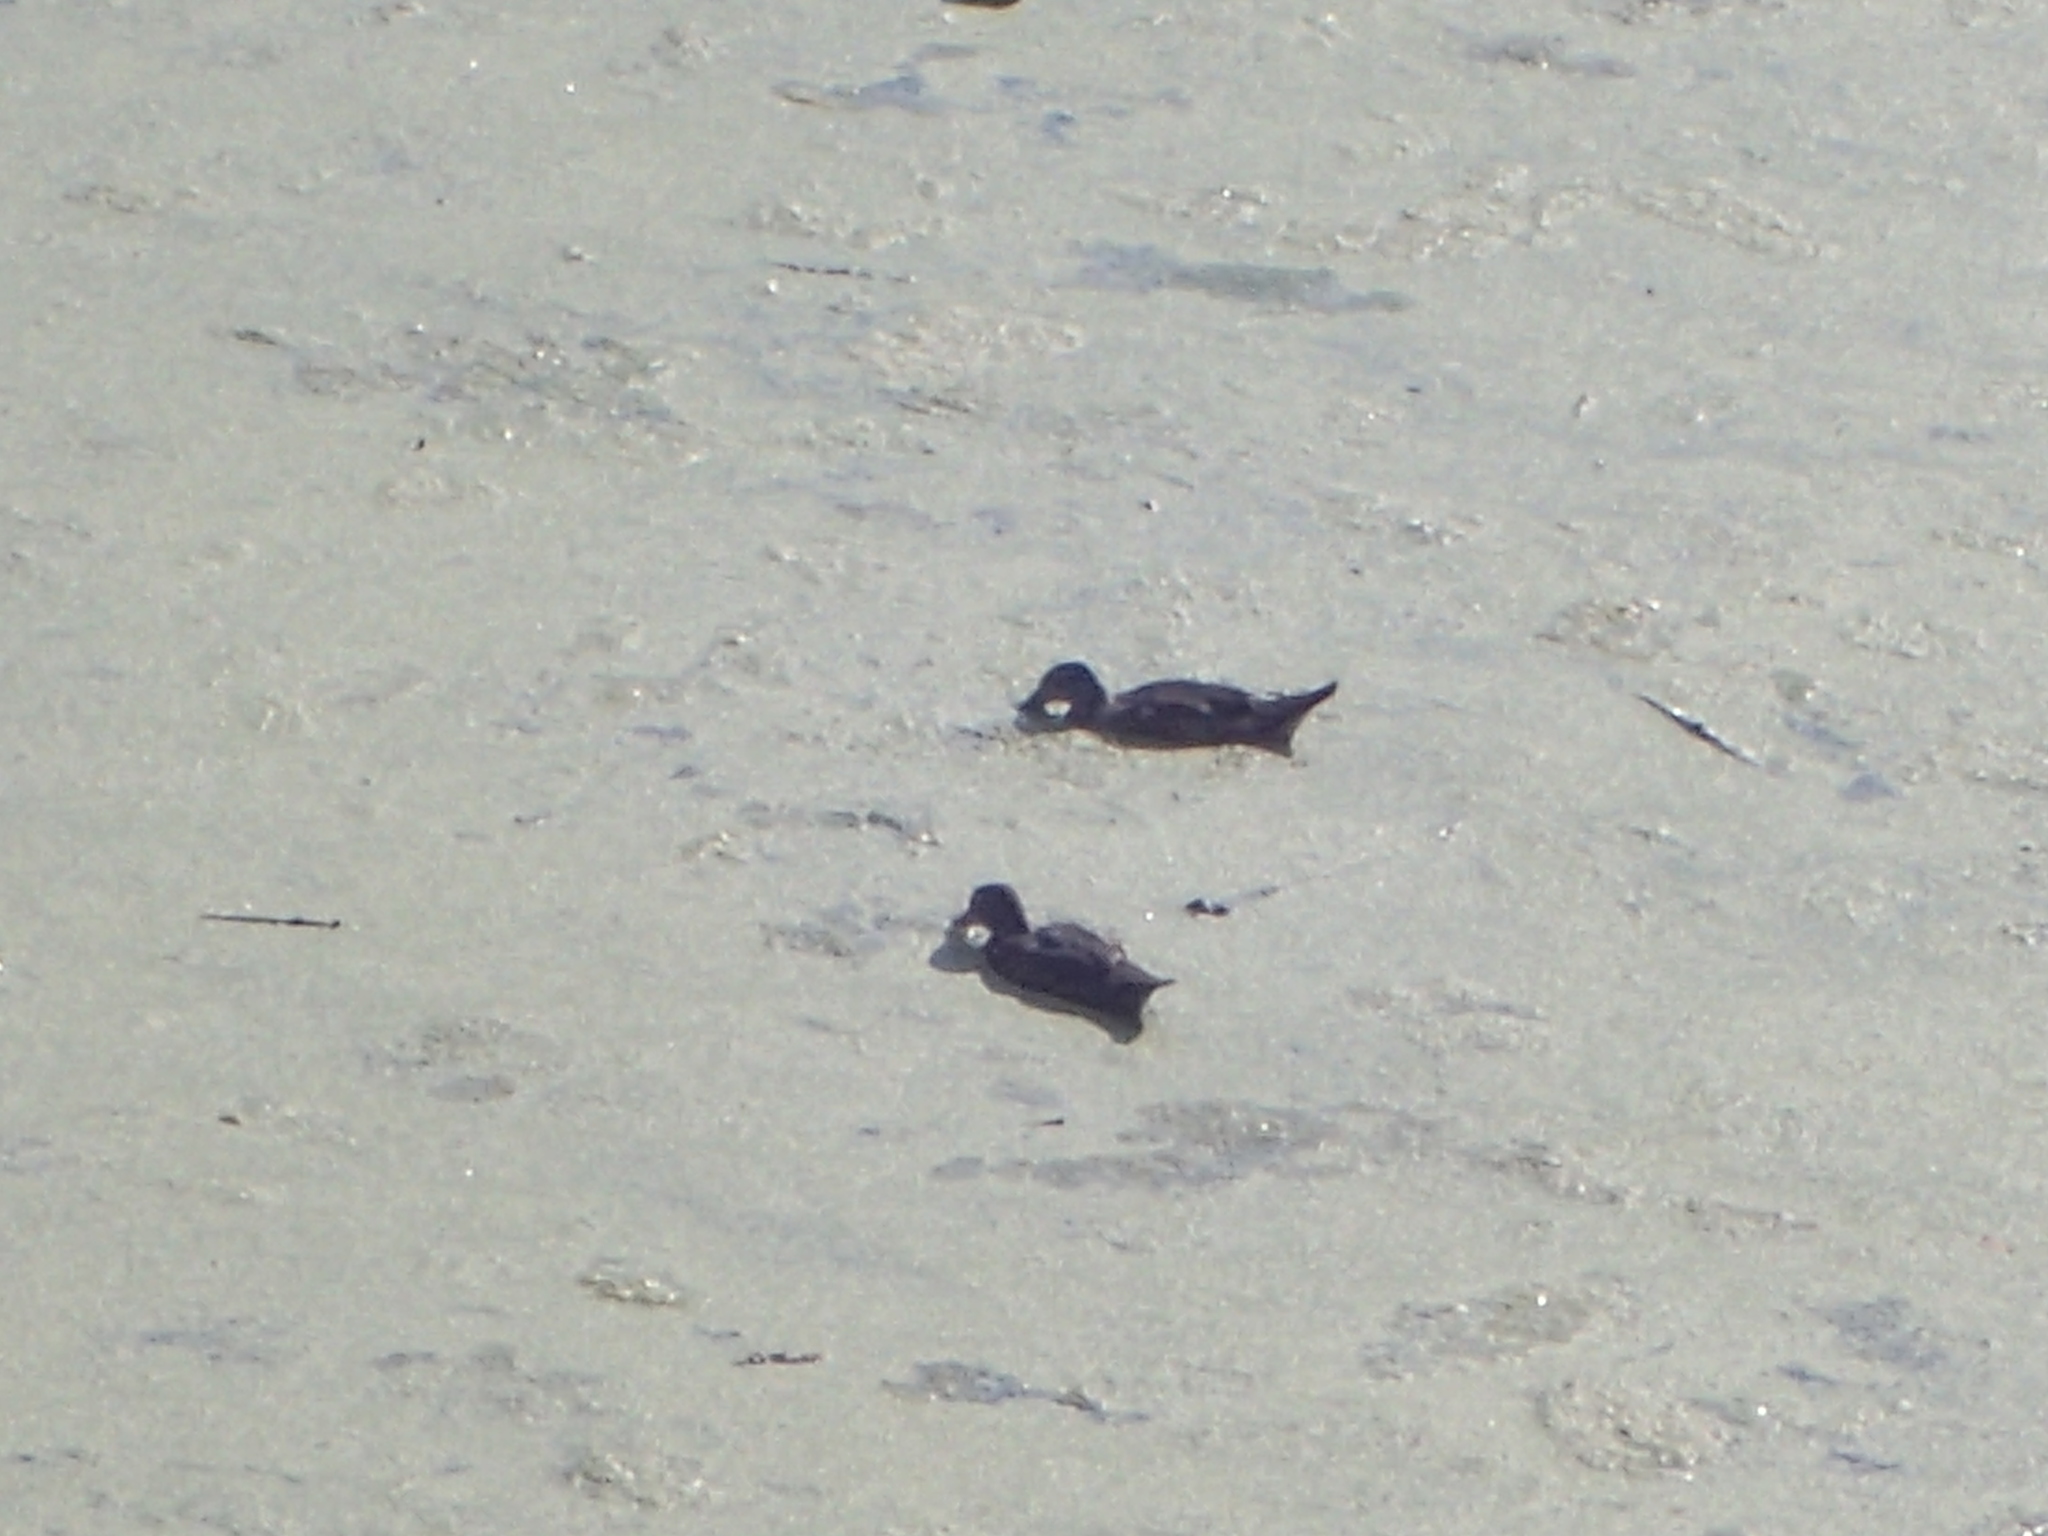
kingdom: Animalia
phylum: Chordata
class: Aves
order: Anseriformes
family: Anatidae
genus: Anas
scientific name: Anas platyrhynchos
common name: Mallard
